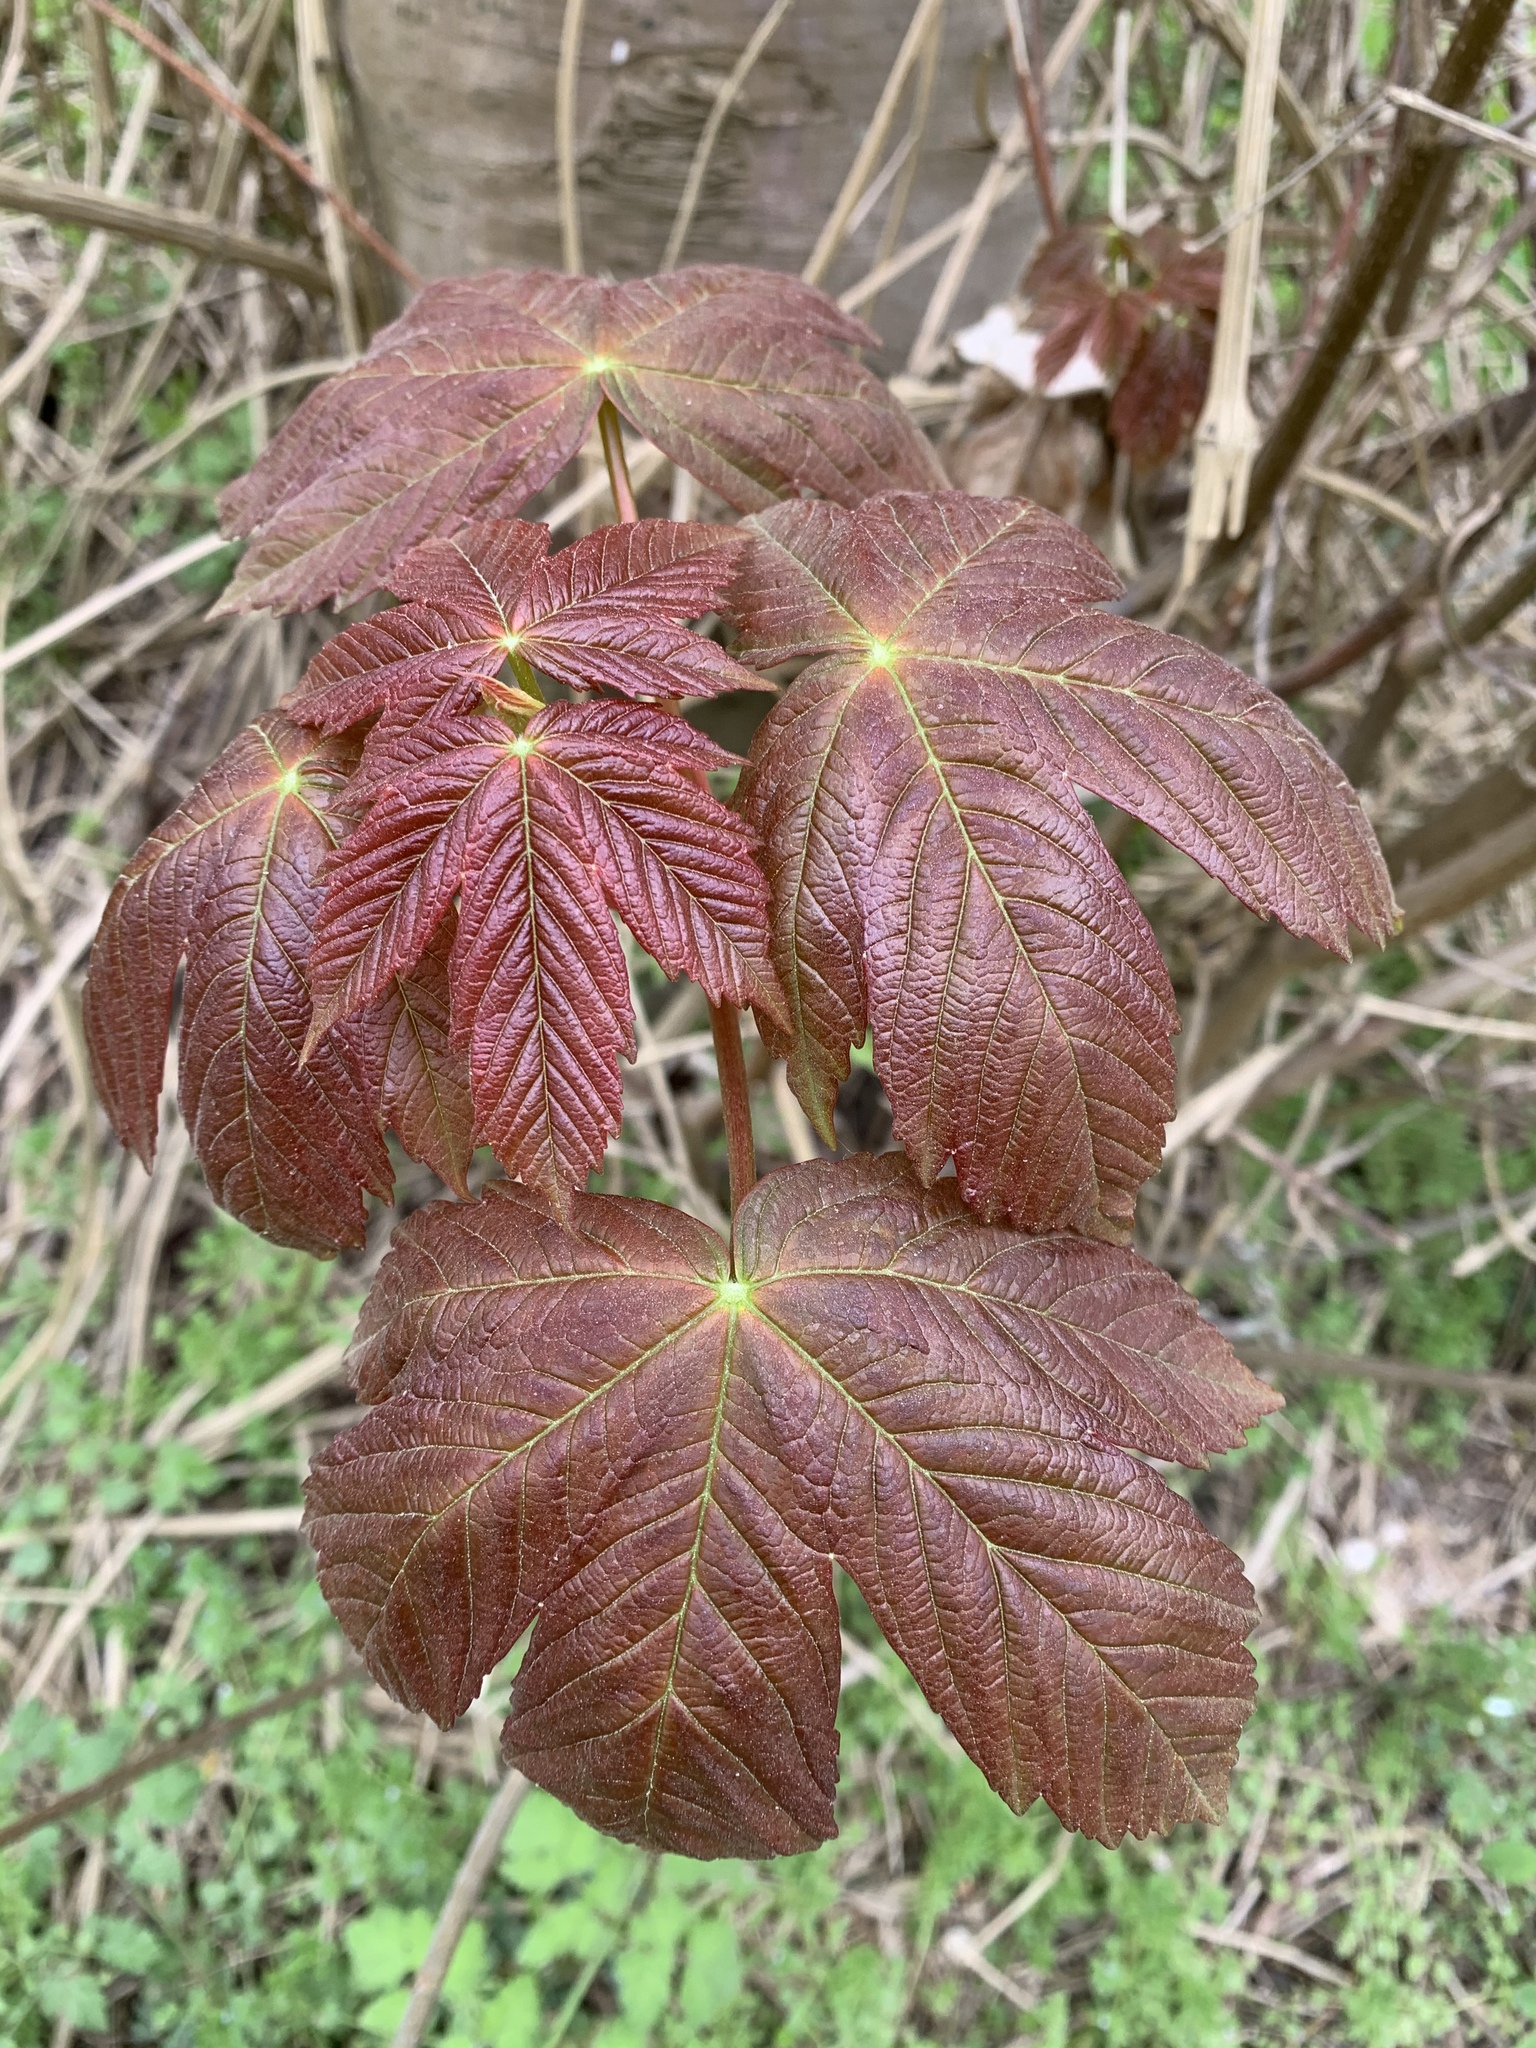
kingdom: Plantae
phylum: Tracheophyta
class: Magnoliopsida
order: Sapindales
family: Sapindaceae
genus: Acer
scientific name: Acer pseudoplatanus
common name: Sycamore
